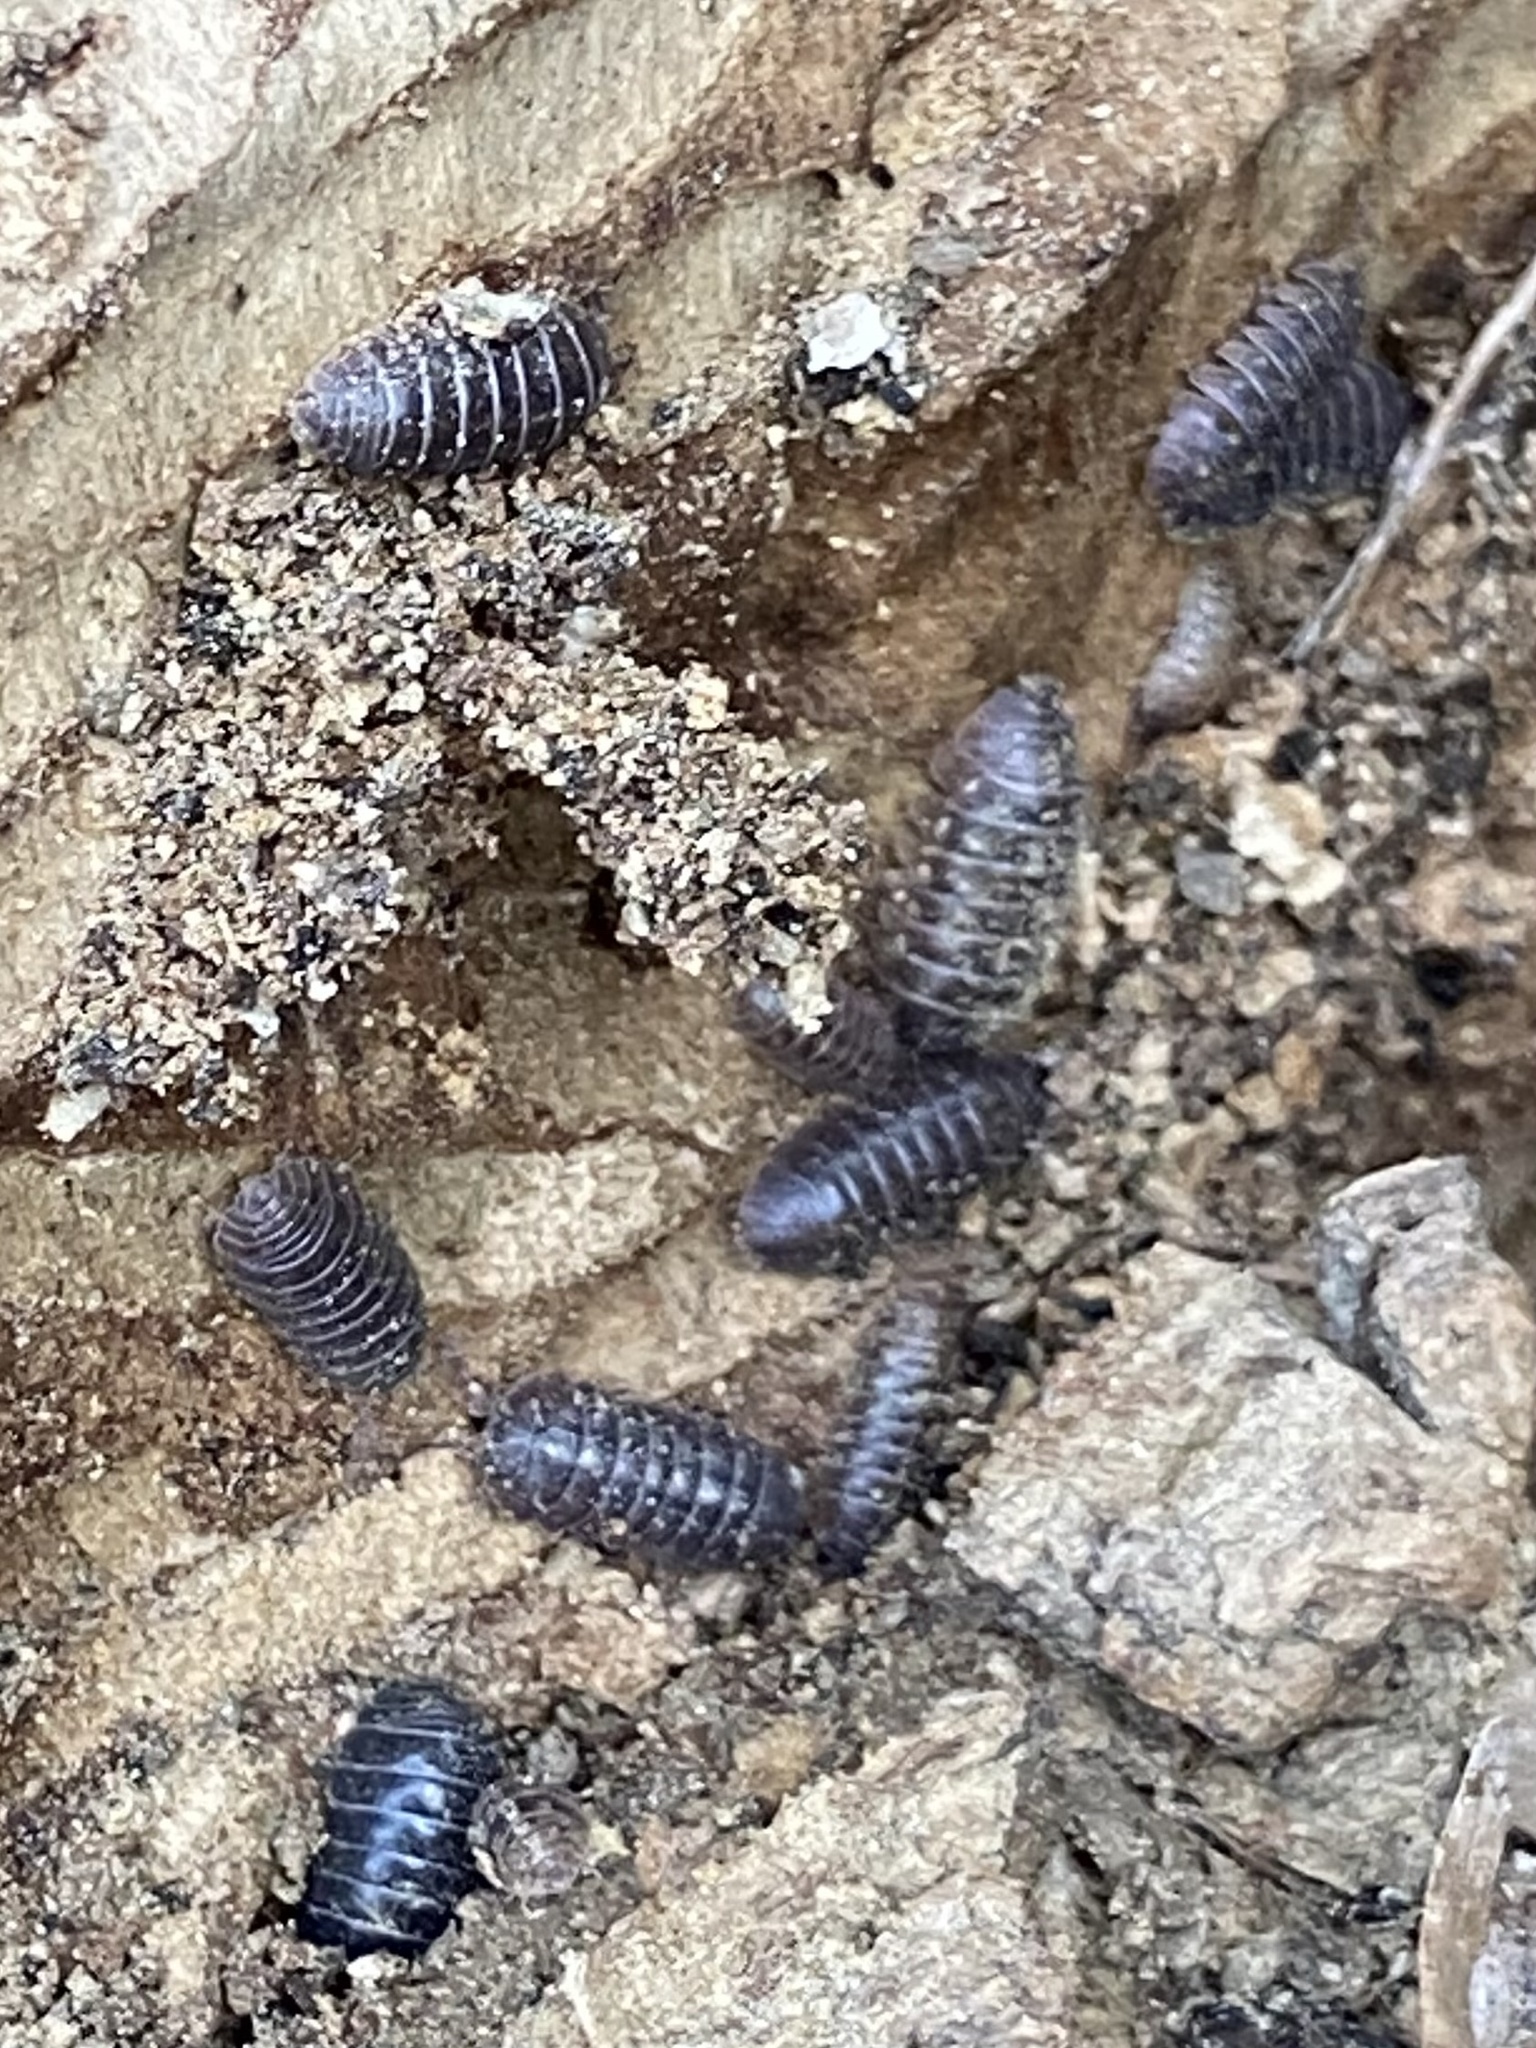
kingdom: Animalia
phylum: Arthropoda
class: Malacostraca
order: Isopoda
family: Armadillidiidae
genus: Armadillidium
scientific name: Armadillidium vulgare
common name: Common pill woodlouse
